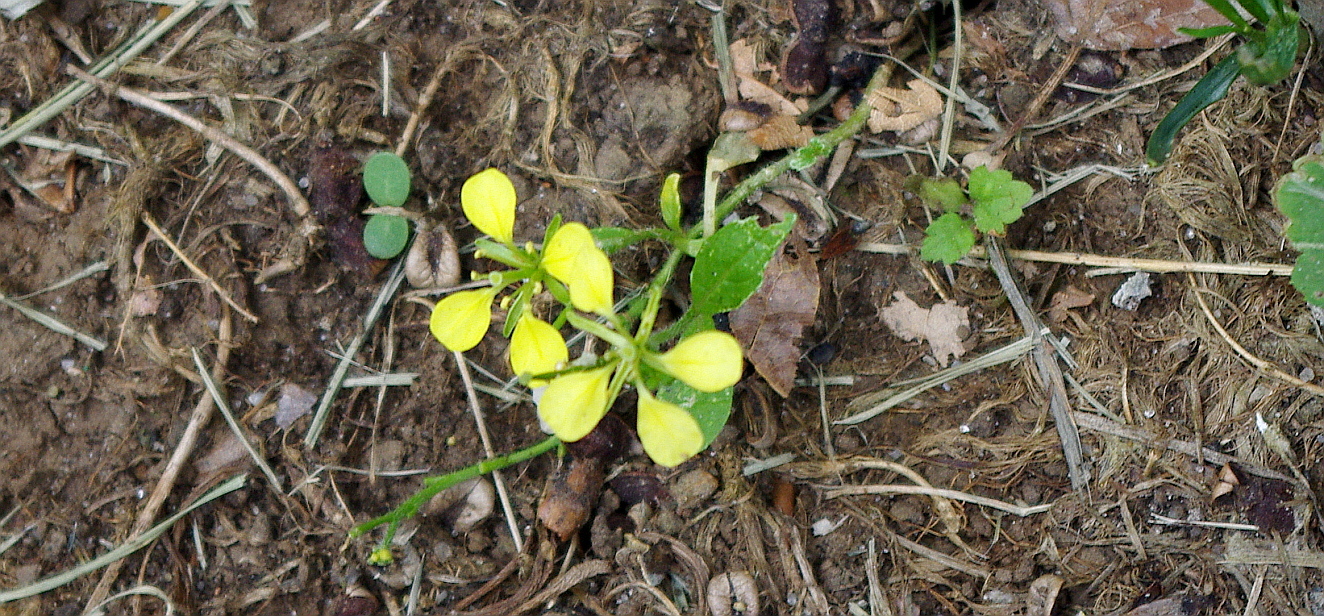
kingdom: Plantae
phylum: Tracheophyta
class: Magnoliopsida
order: Brassicales
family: Brassicaceae
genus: Sinapis
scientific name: Sinapis arvensis
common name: Charlock
